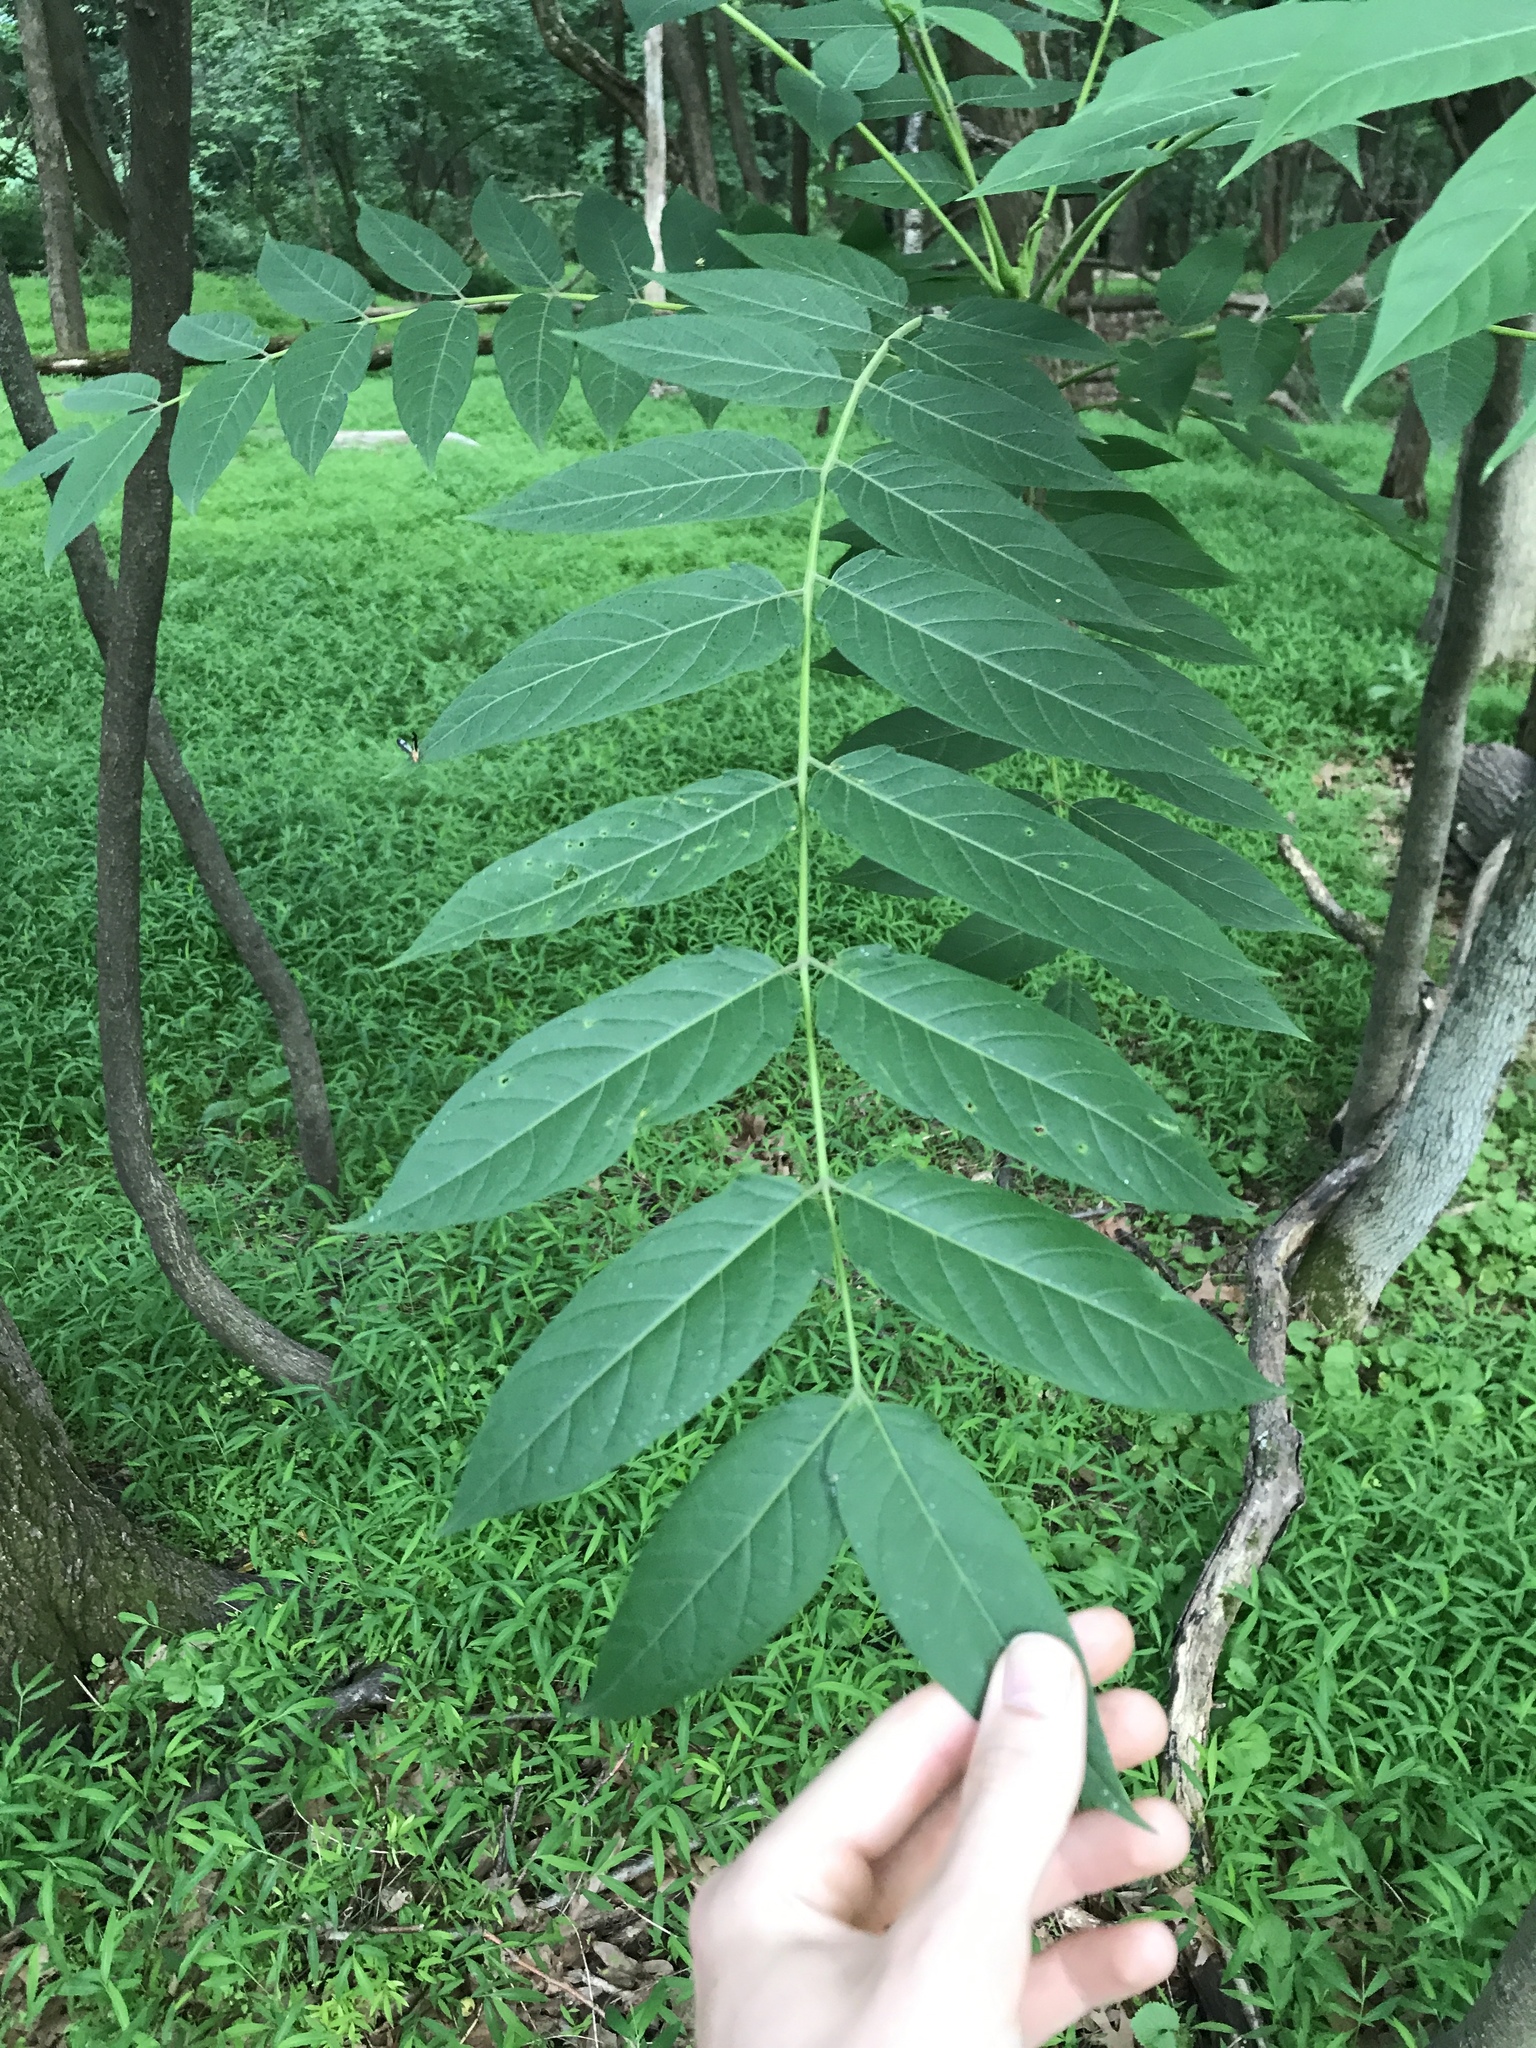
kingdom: Plantae
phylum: Tracheophyta
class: Magnoliopsida
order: Sapindales
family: Simaroubaceae
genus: Ailanthus
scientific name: Ailanthus altissima
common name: Tree-of-heaven
